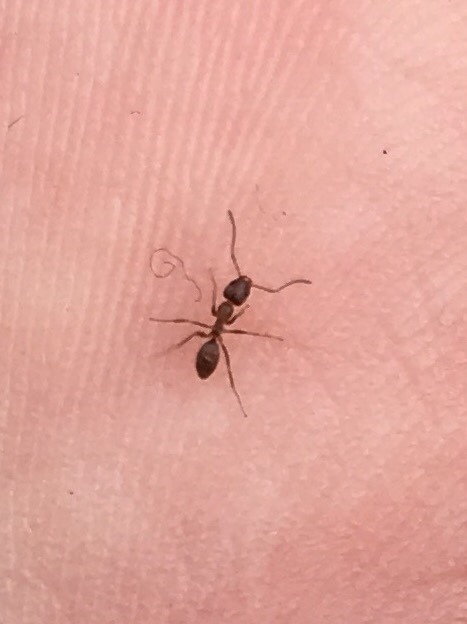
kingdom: Animalia
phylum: Arthropoda
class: Insecta
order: Hymenoptera
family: Formicidae
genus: Linepithema
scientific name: Linepithema humile
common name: Argentine ant
